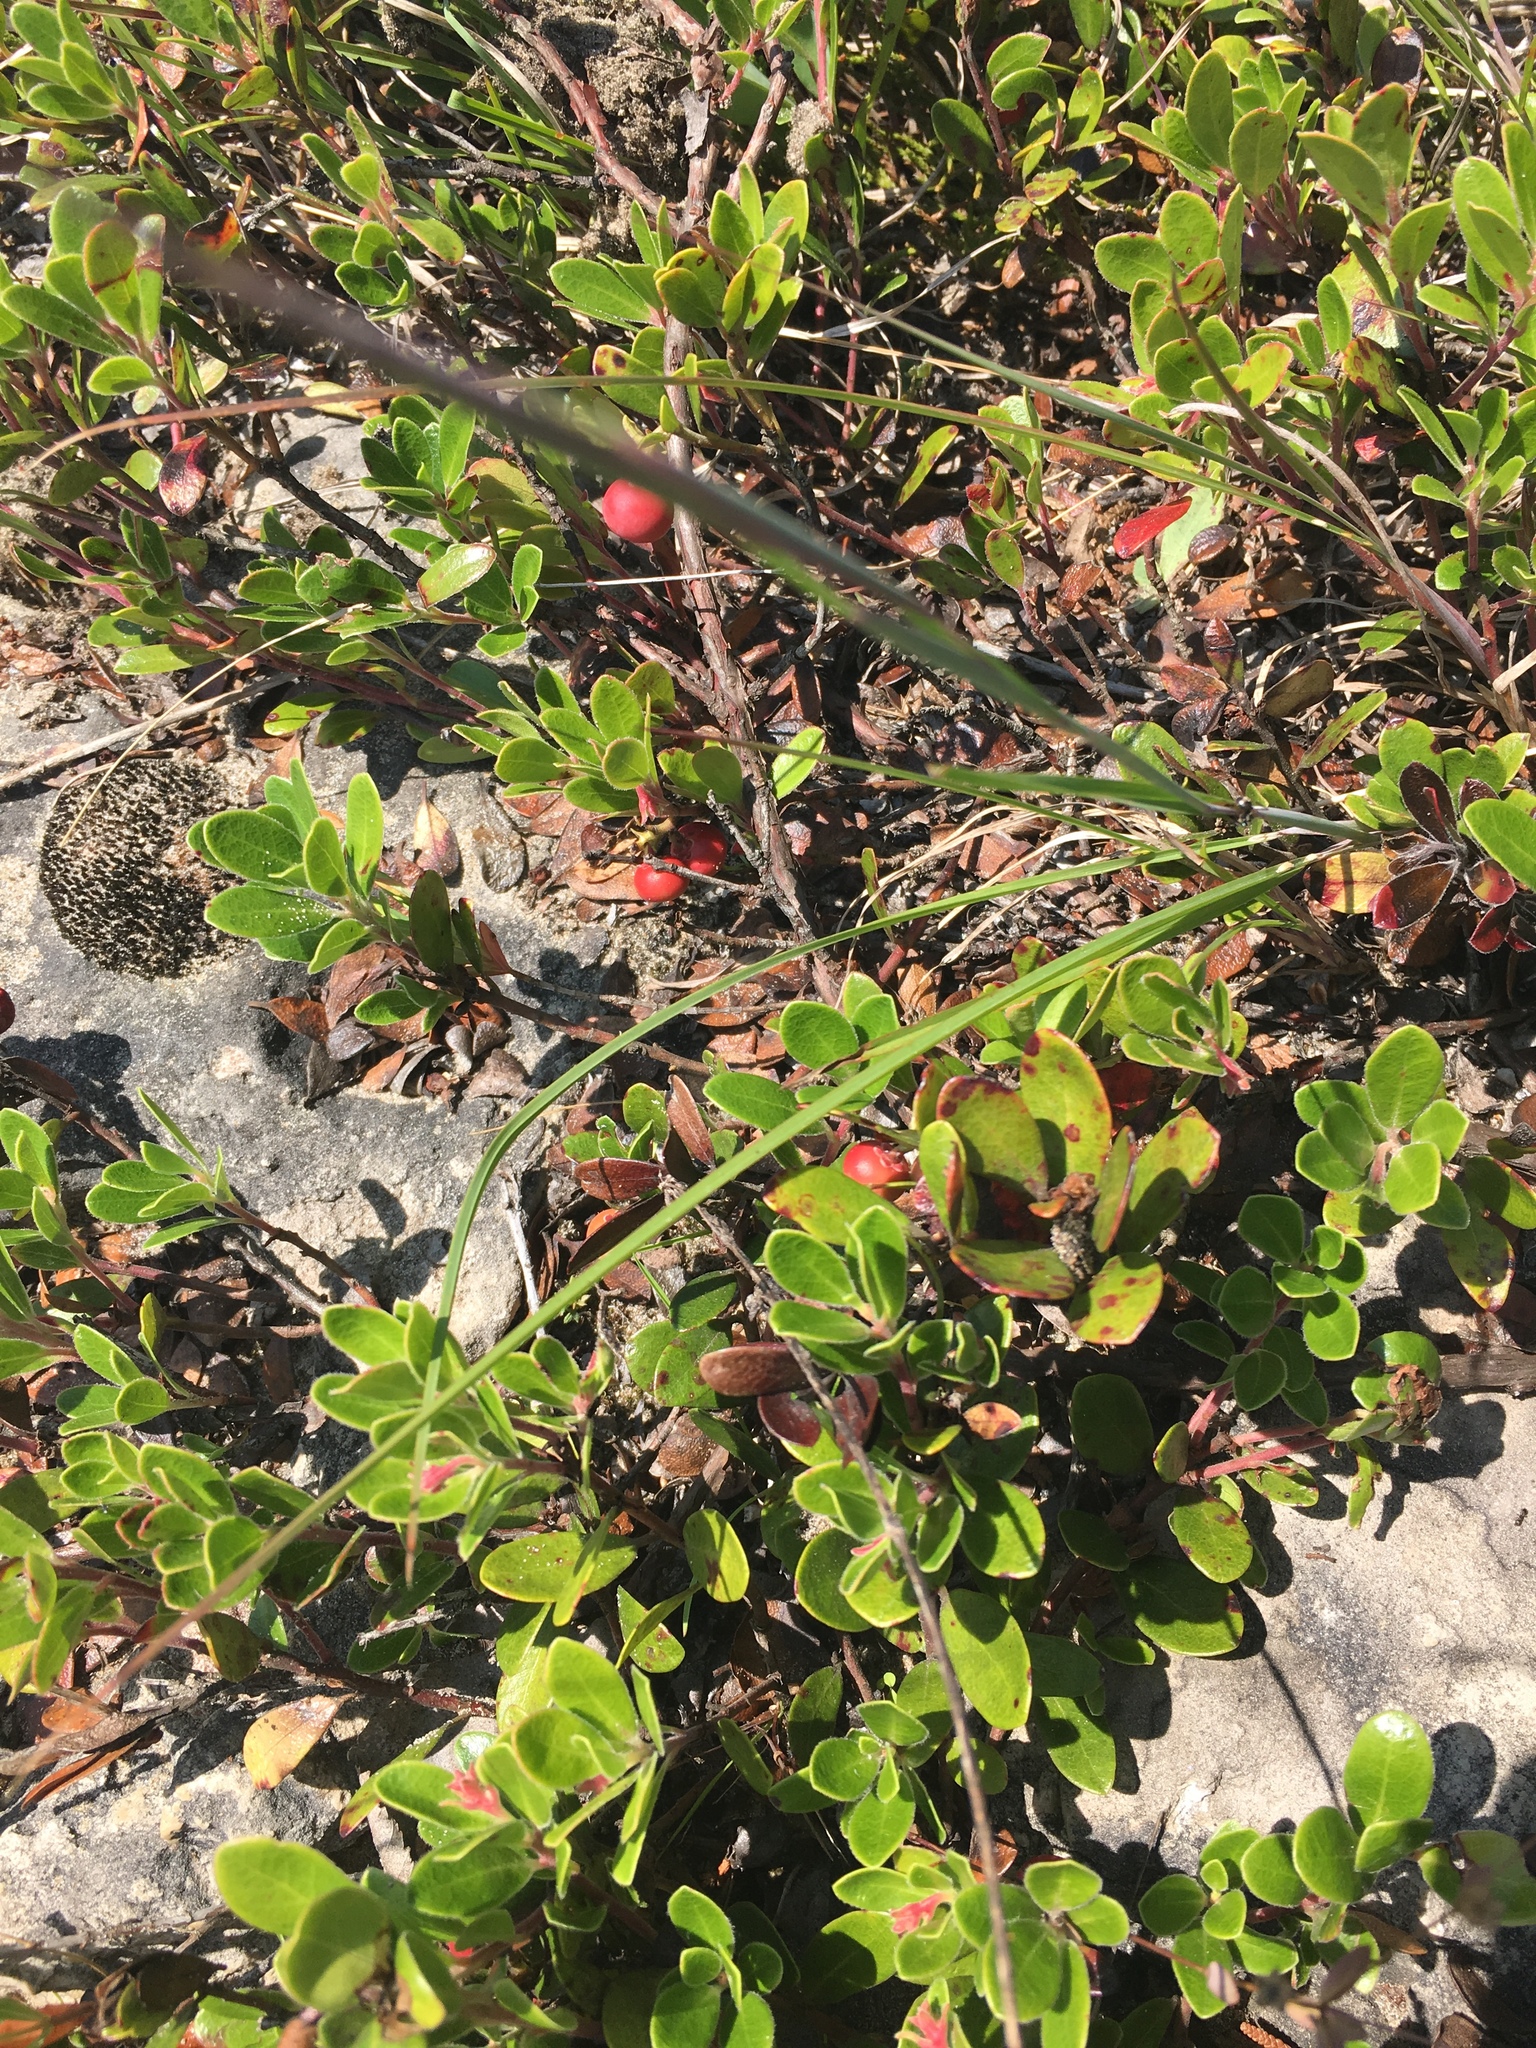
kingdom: Plantae
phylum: Tracheophyta
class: Magnoliopsida
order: Ericales
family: Ericaceae
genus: Arctostaphylos
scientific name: Arctostaphylos uva-ursi
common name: Bearberry
